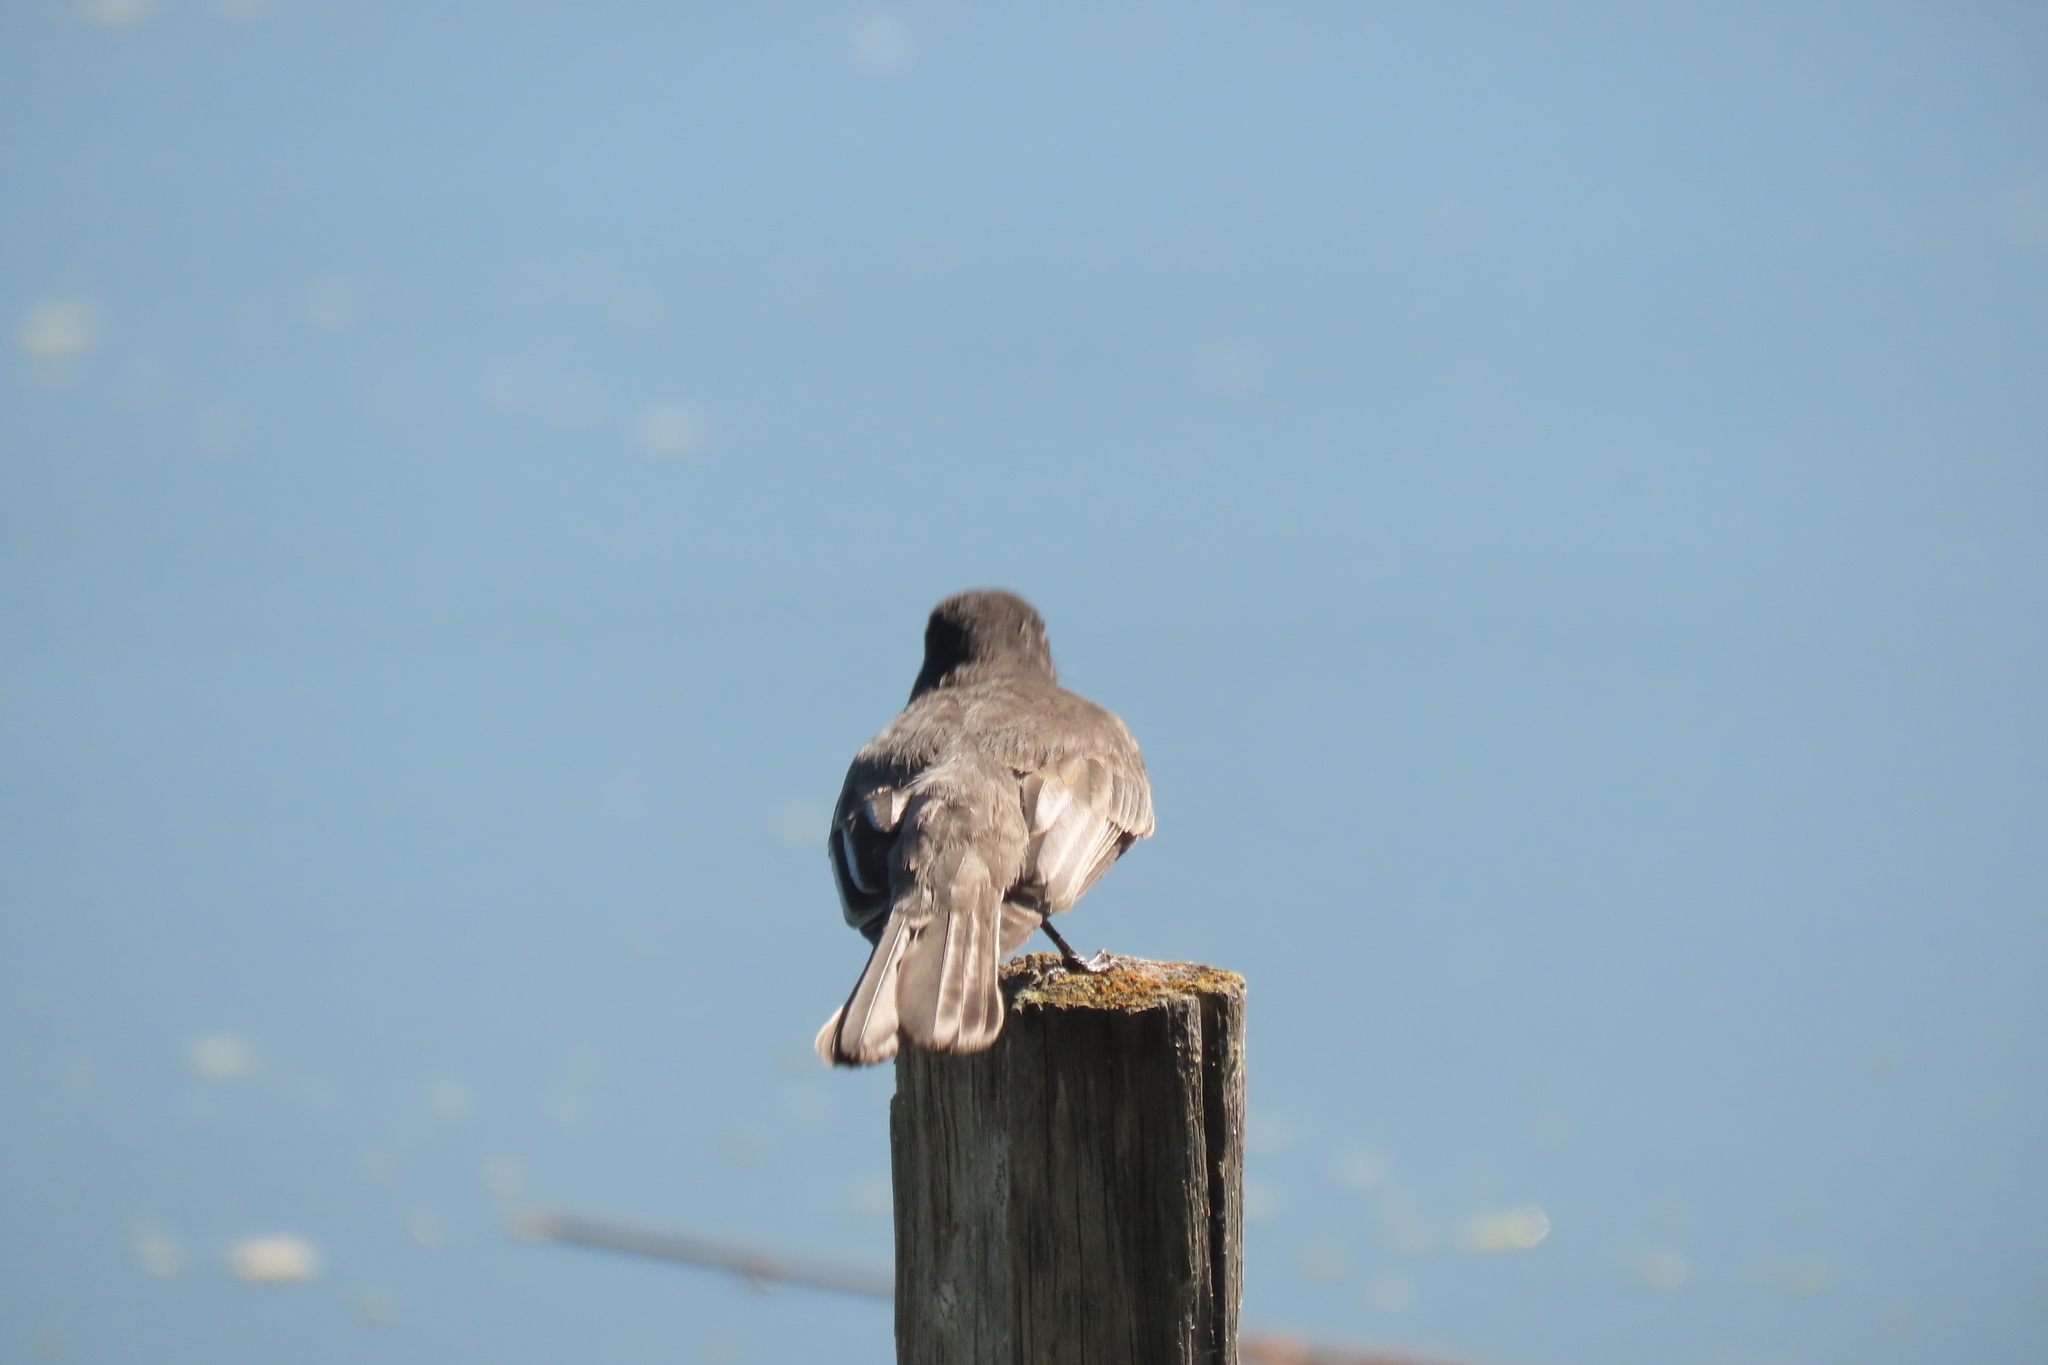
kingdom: Animalia
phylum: Chordata
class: Aves
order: Passeriformes
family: Tyrannidae
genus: Sayornis
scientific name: Sayornis nigricans
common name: Black phoebe
